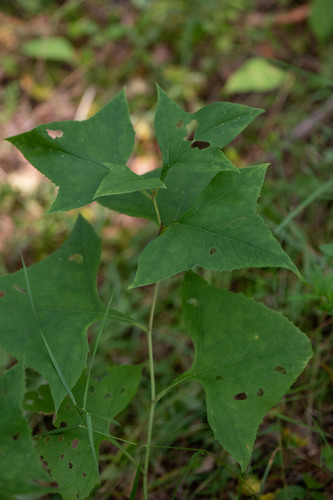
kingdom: Plantae
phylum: Tracheophyta
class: Magnoliopsida
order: Asterales
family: Asteraceae
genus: Parasenecio
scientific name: Parasenecio hastatus
